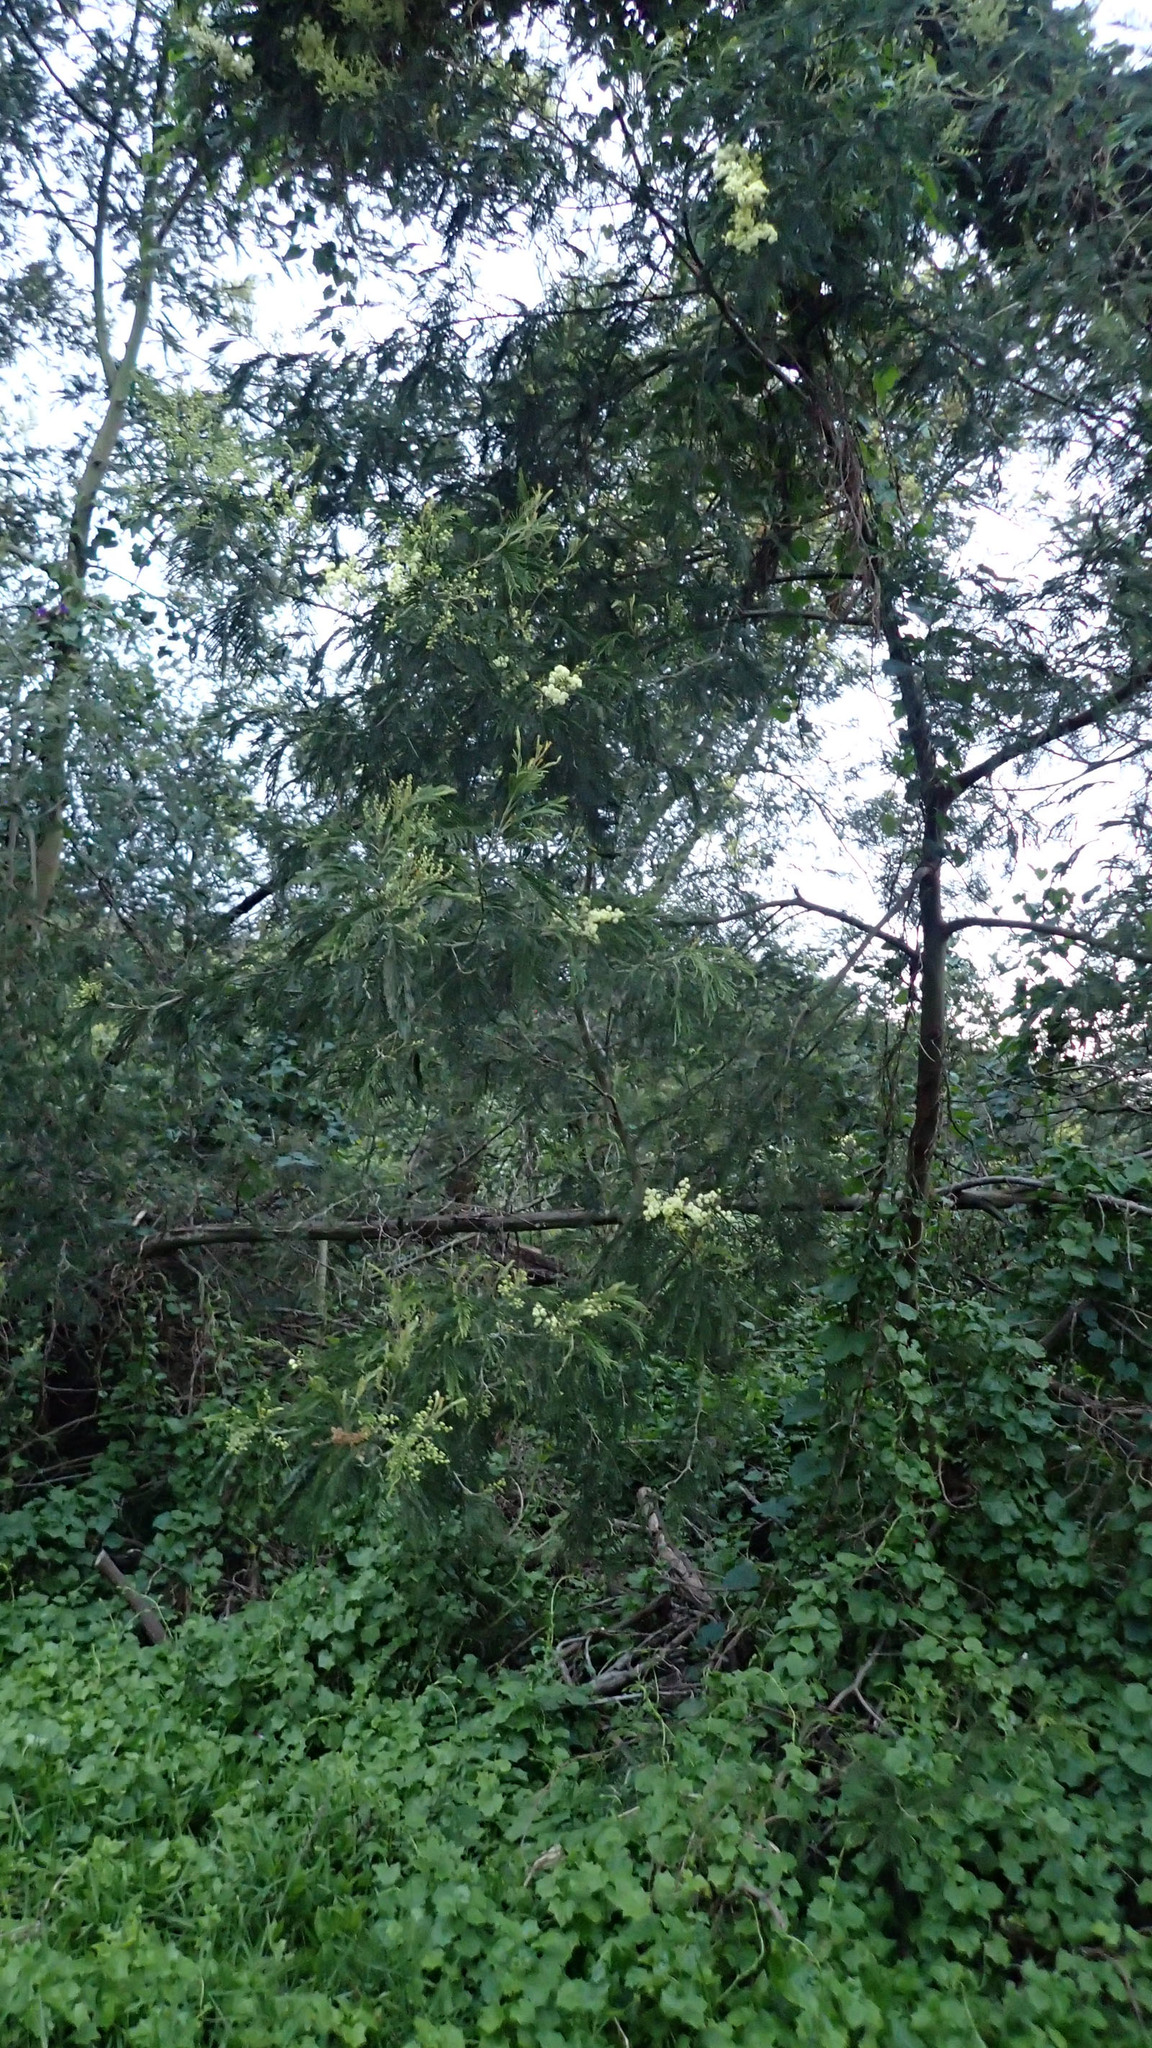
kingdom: Plantae
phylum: Tracheophyta
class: Magnoliopsida
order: Fabales
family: Fabaceae
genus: Acacia
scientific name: Acacia mearnsii
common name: Black wattle
